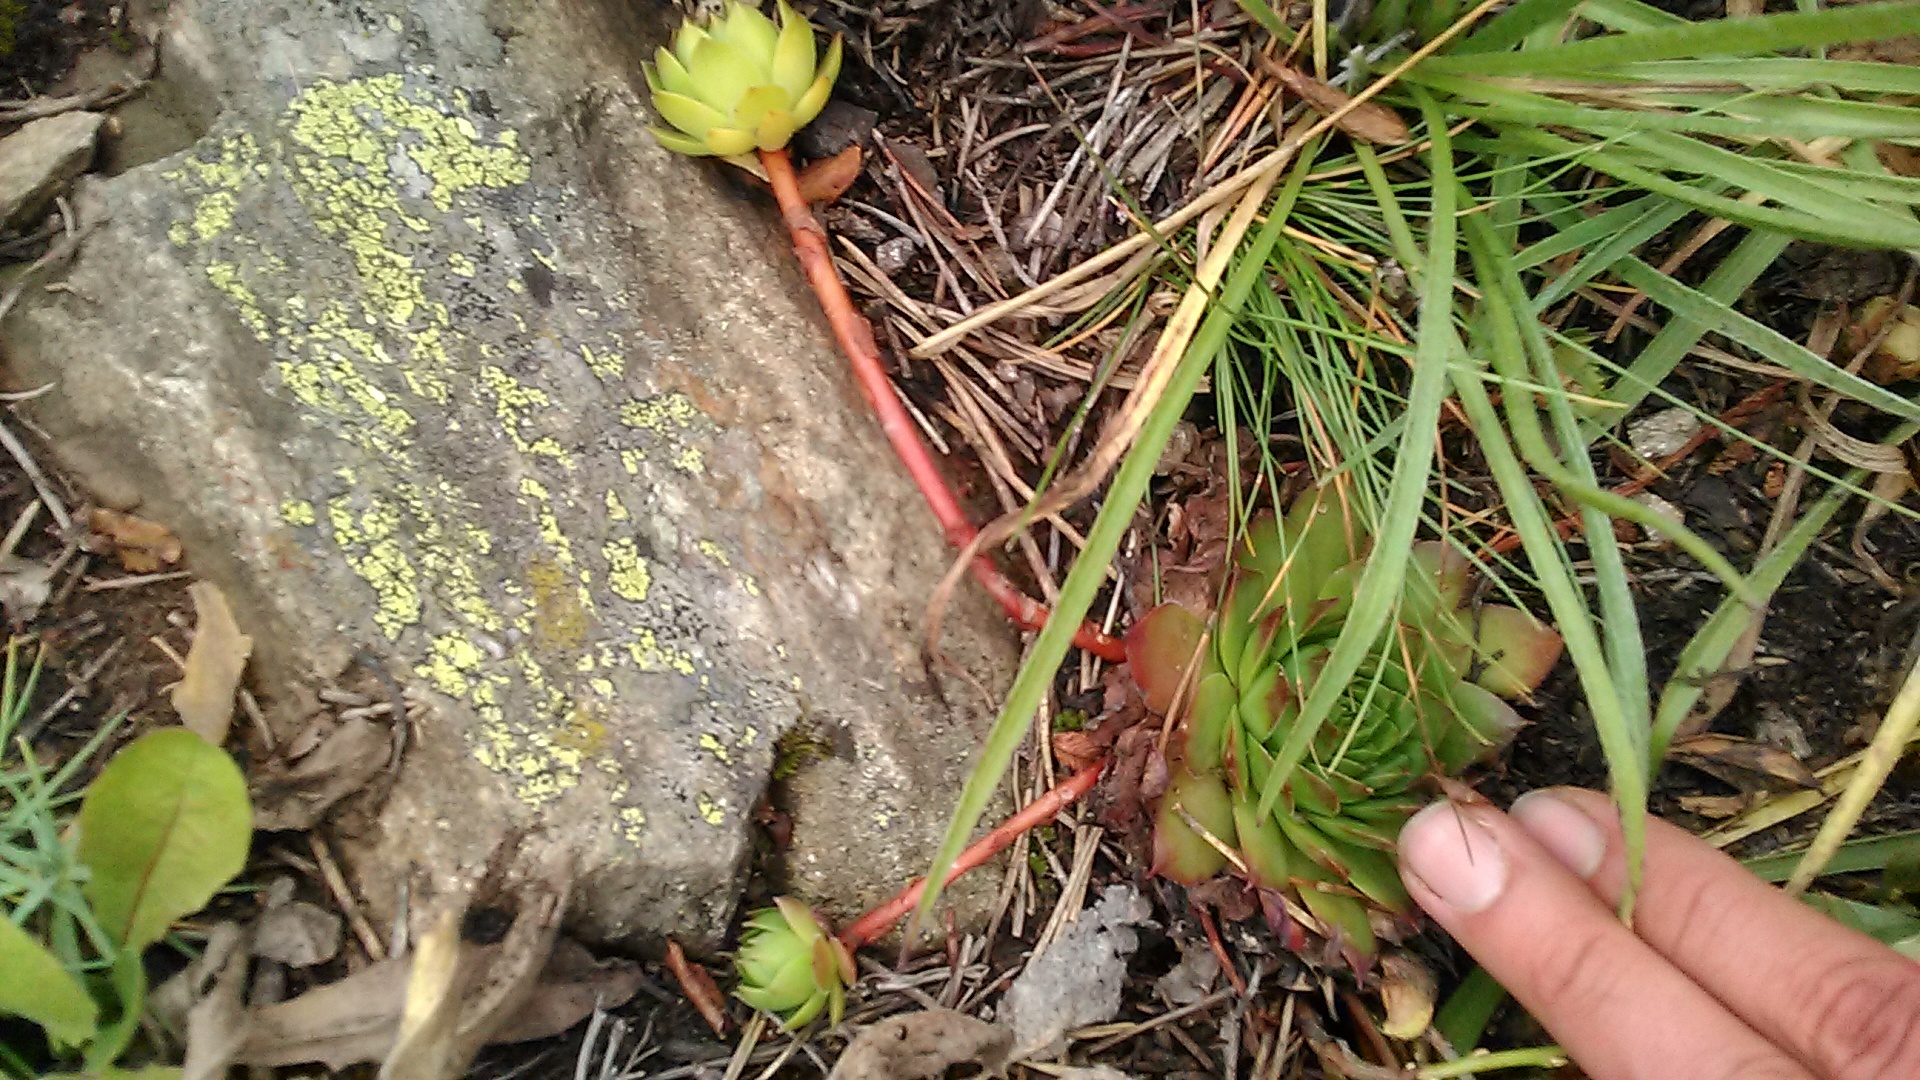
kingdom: Plantae
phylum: Tracheophyta
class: Magnoliopsida
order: Saxifragales
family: Crassulaceae
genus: Sempervivum
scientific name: Sempervivum caucasicum
